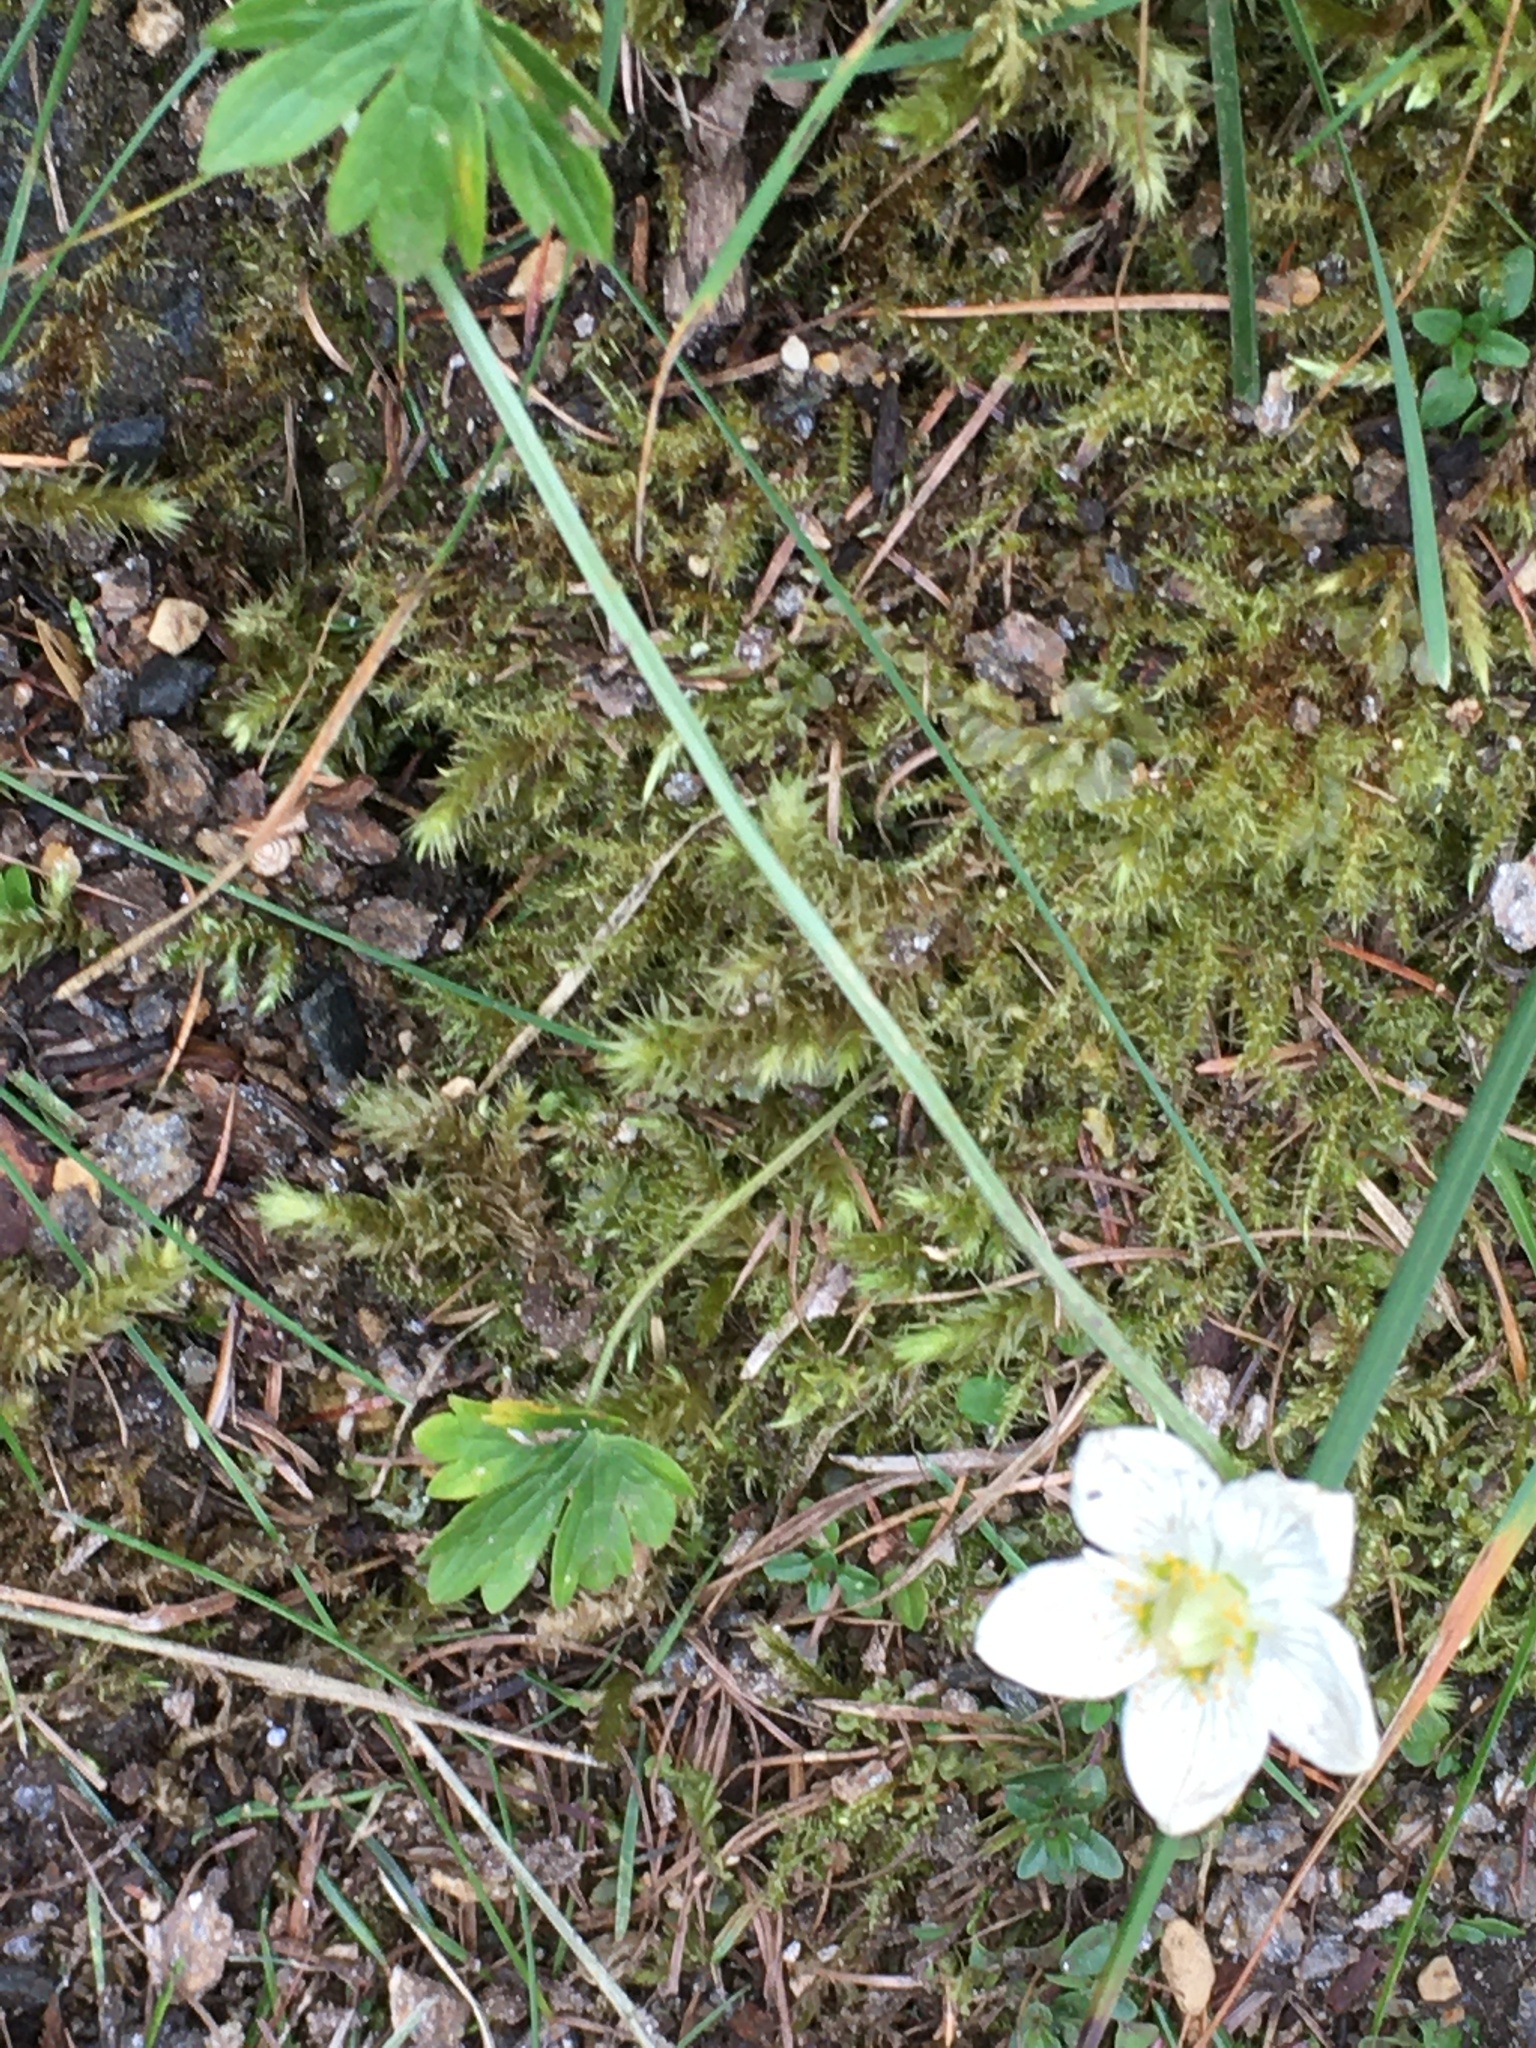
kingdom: Plantae
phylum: Tracheophyta
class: Magnoliopsida
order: Celastrales
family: Parnassiaceae
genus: Parnassia
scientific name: Parnassia palustris
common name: Grass-of-parnassus
